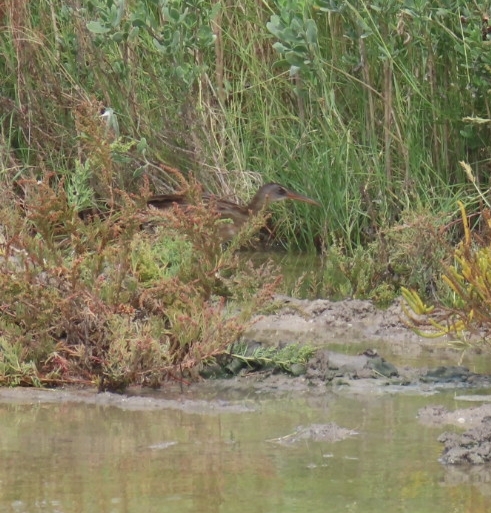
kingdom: Animalia
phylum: Chordata
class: Aves
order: Gruiformes
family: Rallidae
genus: Rallus
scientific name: Rallus crepitans
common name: Clapper rail
